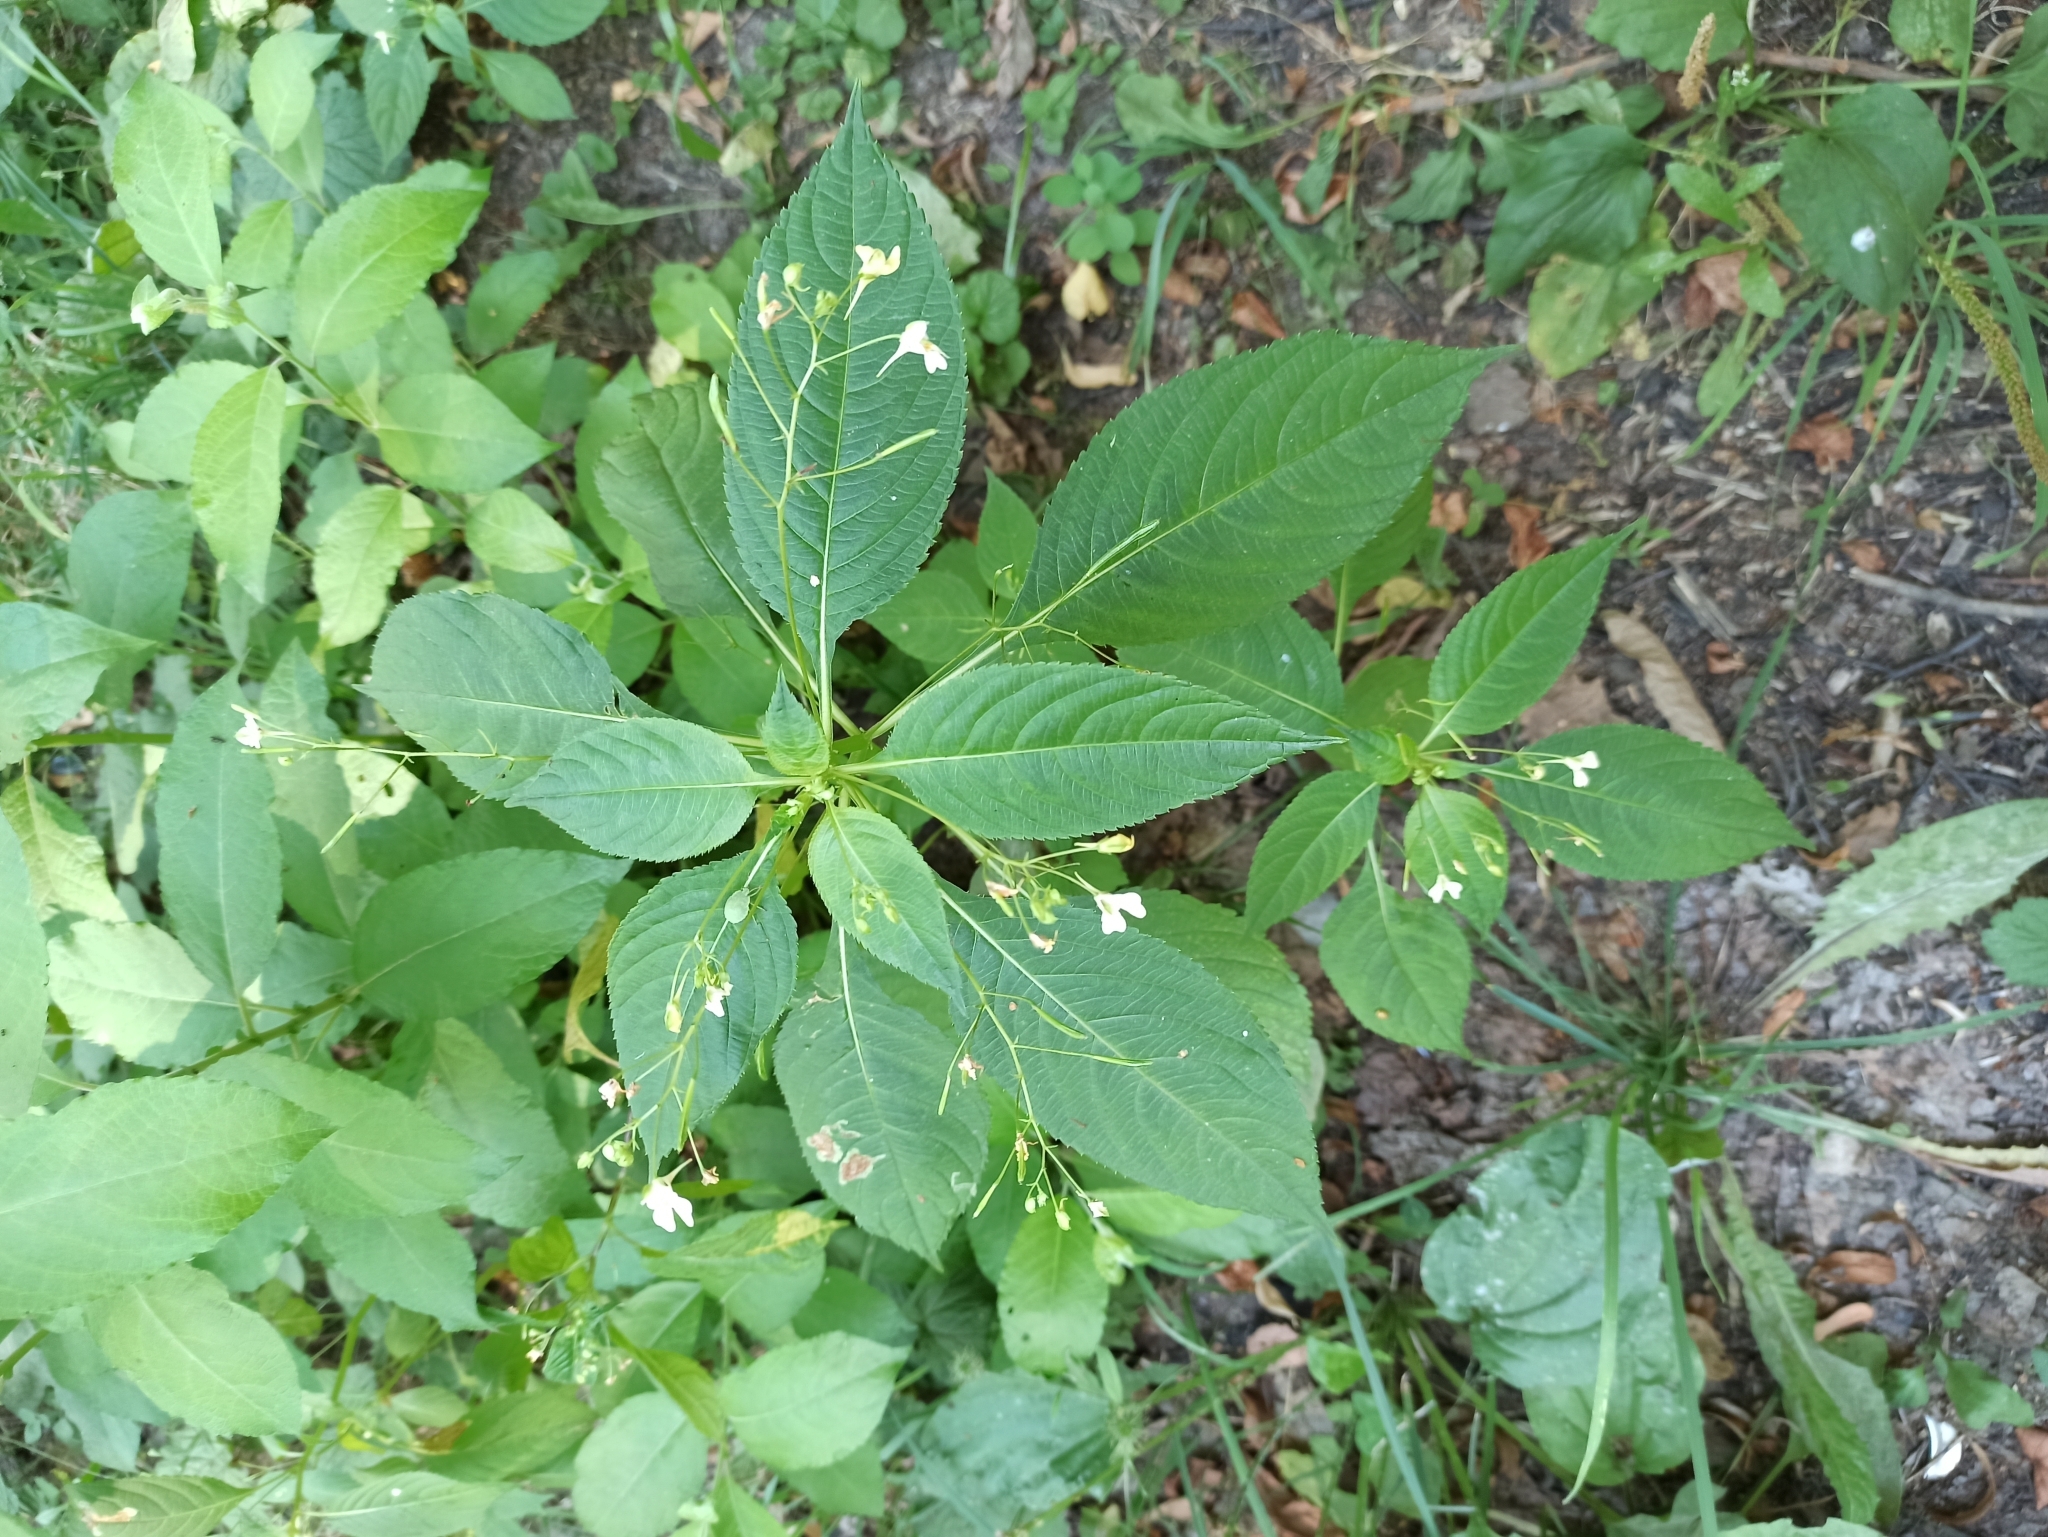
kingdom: Plantae
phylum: Tracheophyta
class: Magnoliopsida
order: Ericales
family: Balsaminaceae
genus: Impatiens
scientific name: Impatiens parviflora
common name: Small balsam
